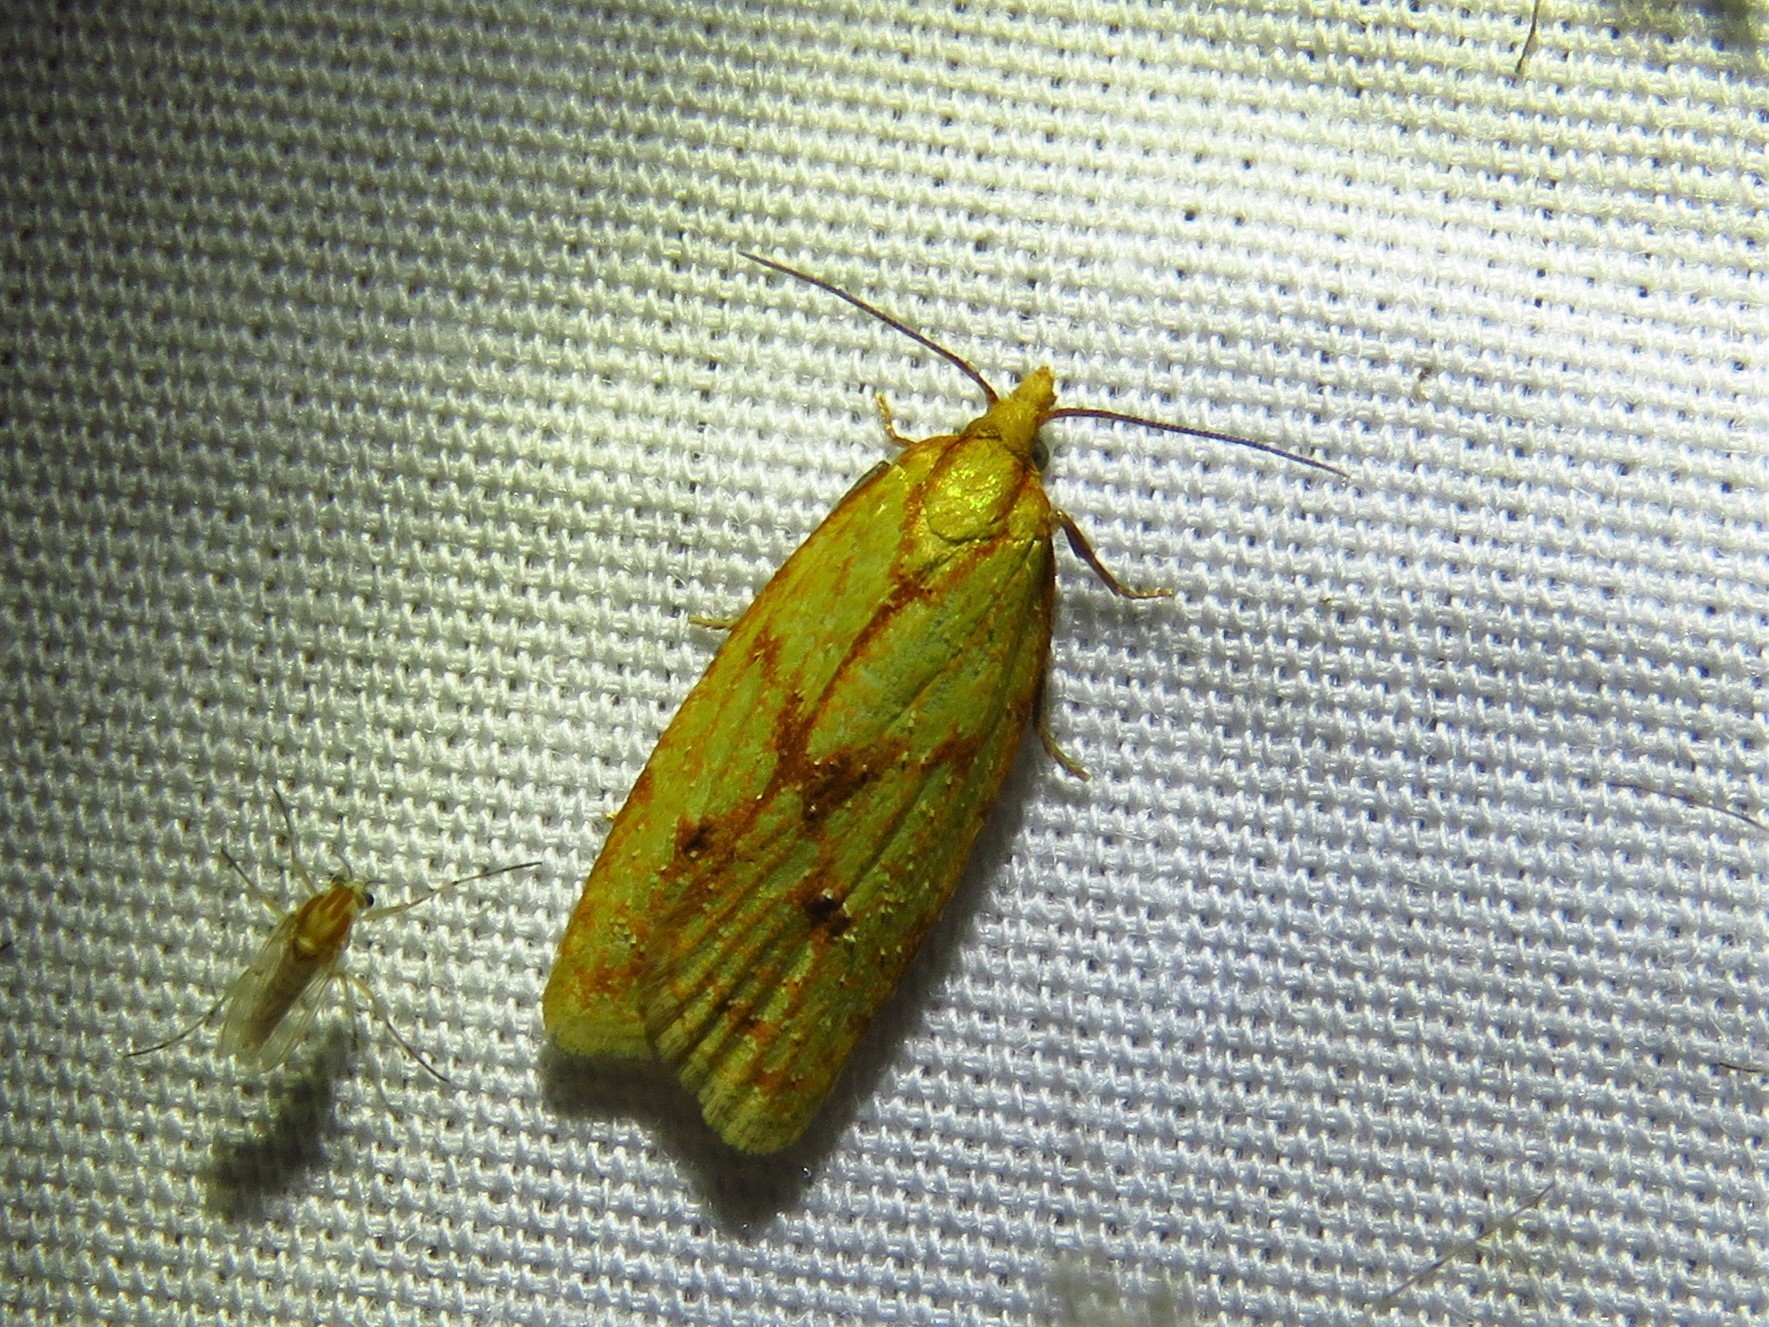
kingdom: Animalia
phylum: Arthropoda
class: Insecta
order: Lepidoptera
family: Tortricidae
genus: Sparganothis
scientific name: Sparganothis sulfureana
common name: Sparganothis fruitworm moth
